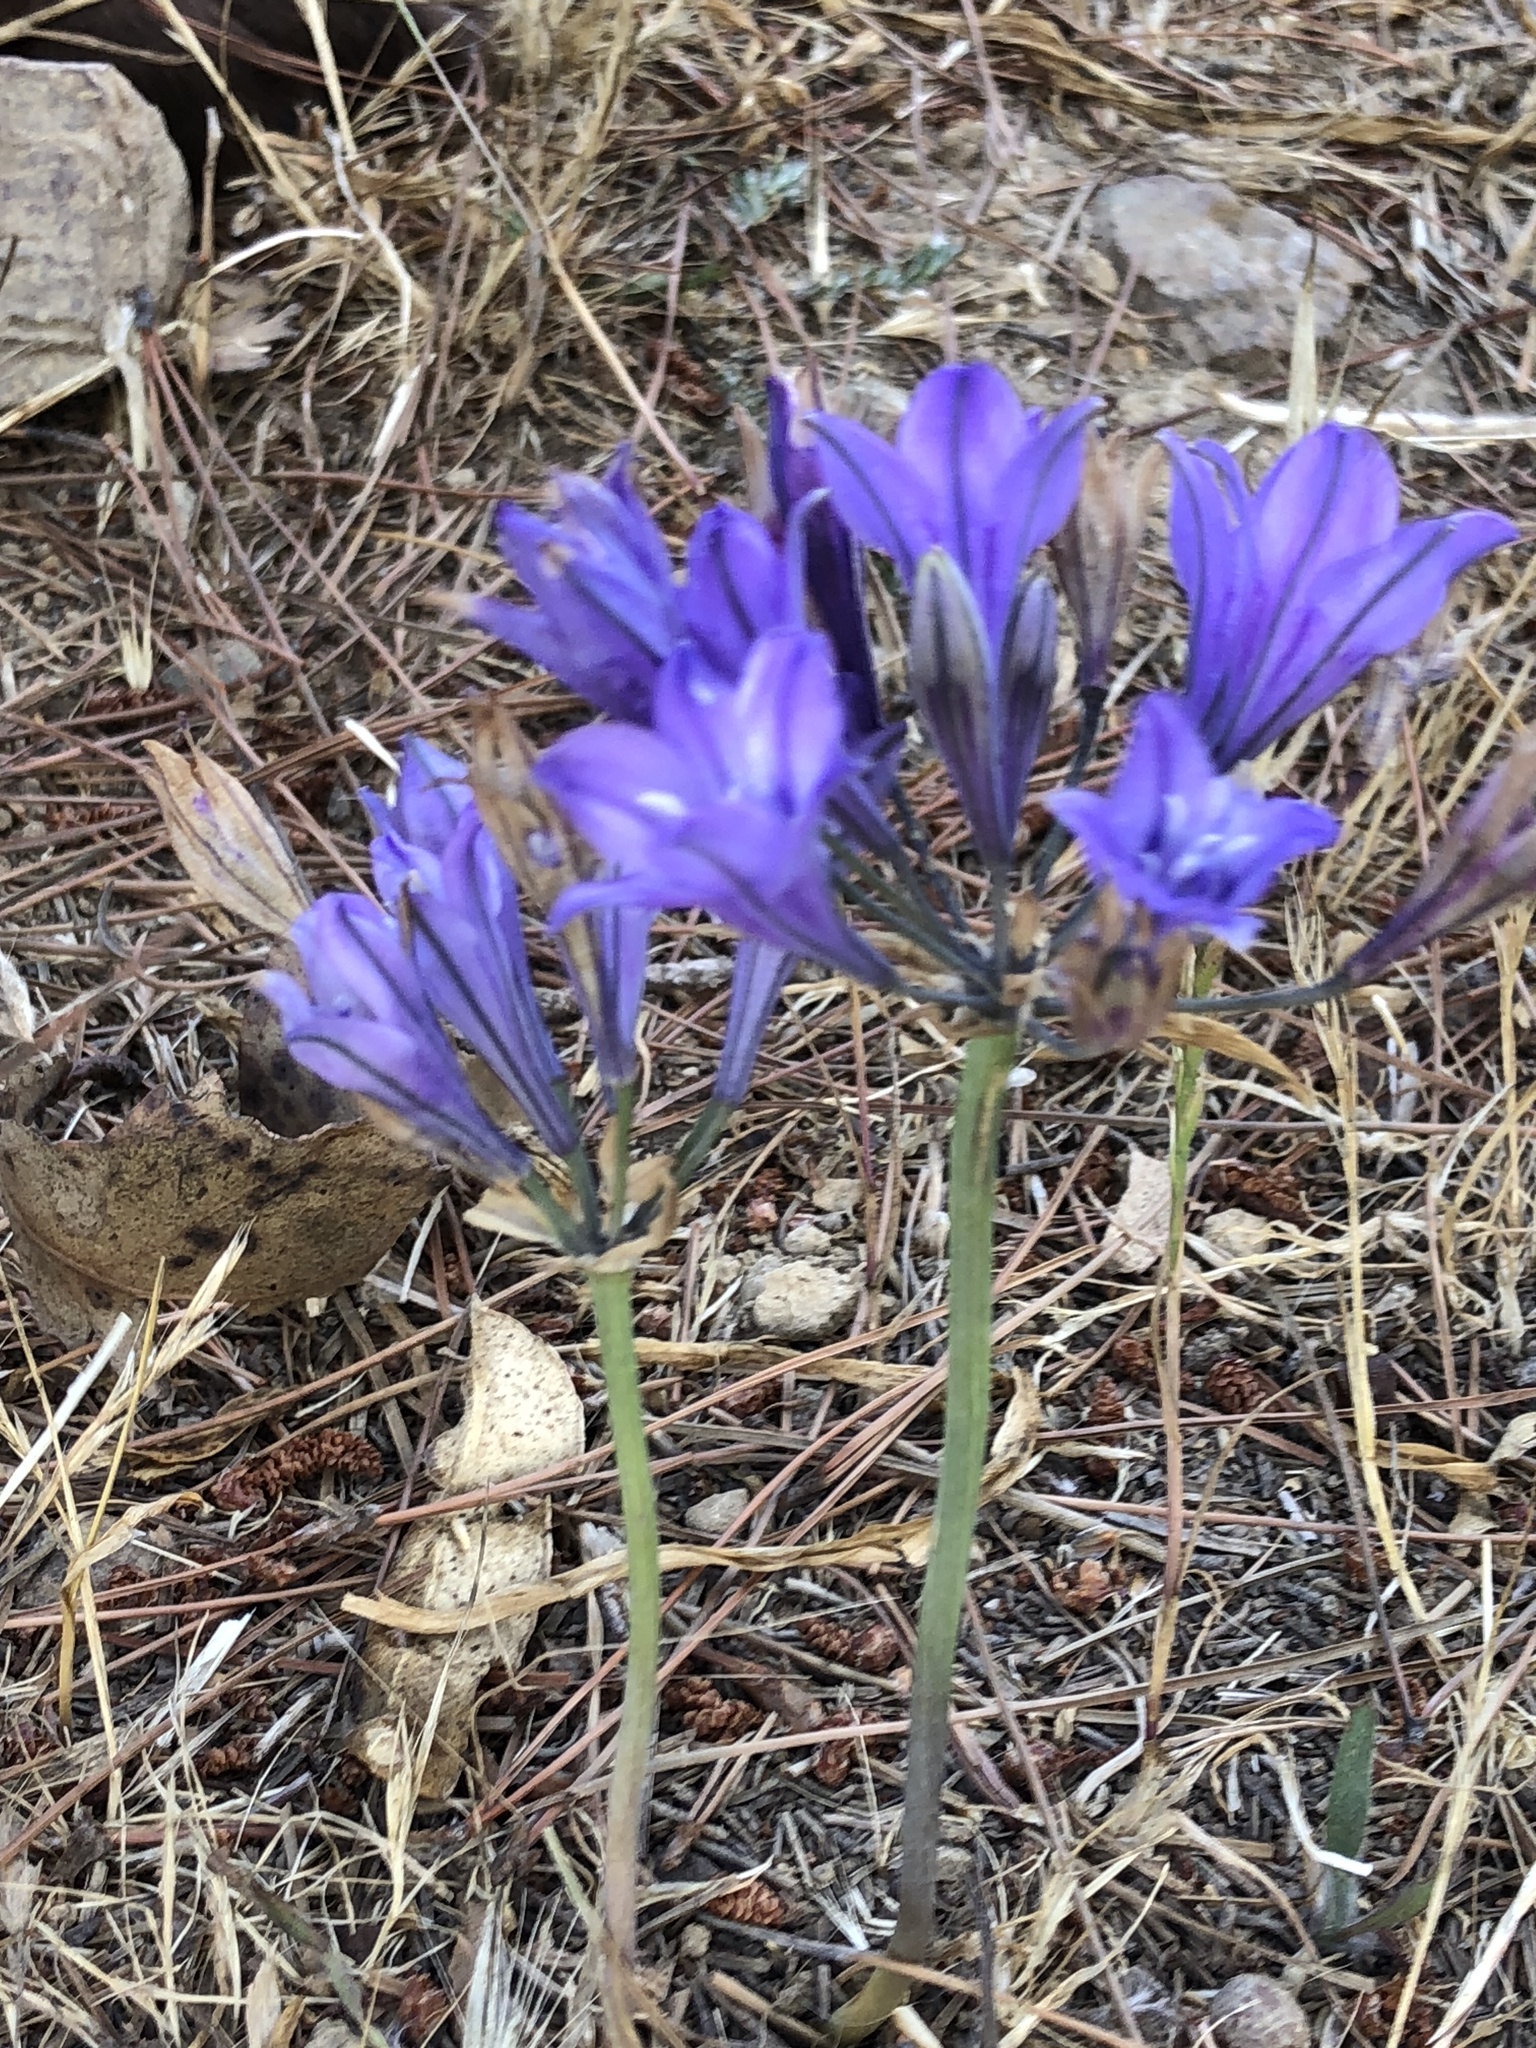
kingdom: Plantae
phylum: Tracheophyta
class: Liliopsida
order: Asparagales
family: Asparagaceae
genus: Triteleia
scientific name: Triteleia laxa
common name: Triplet-lily
